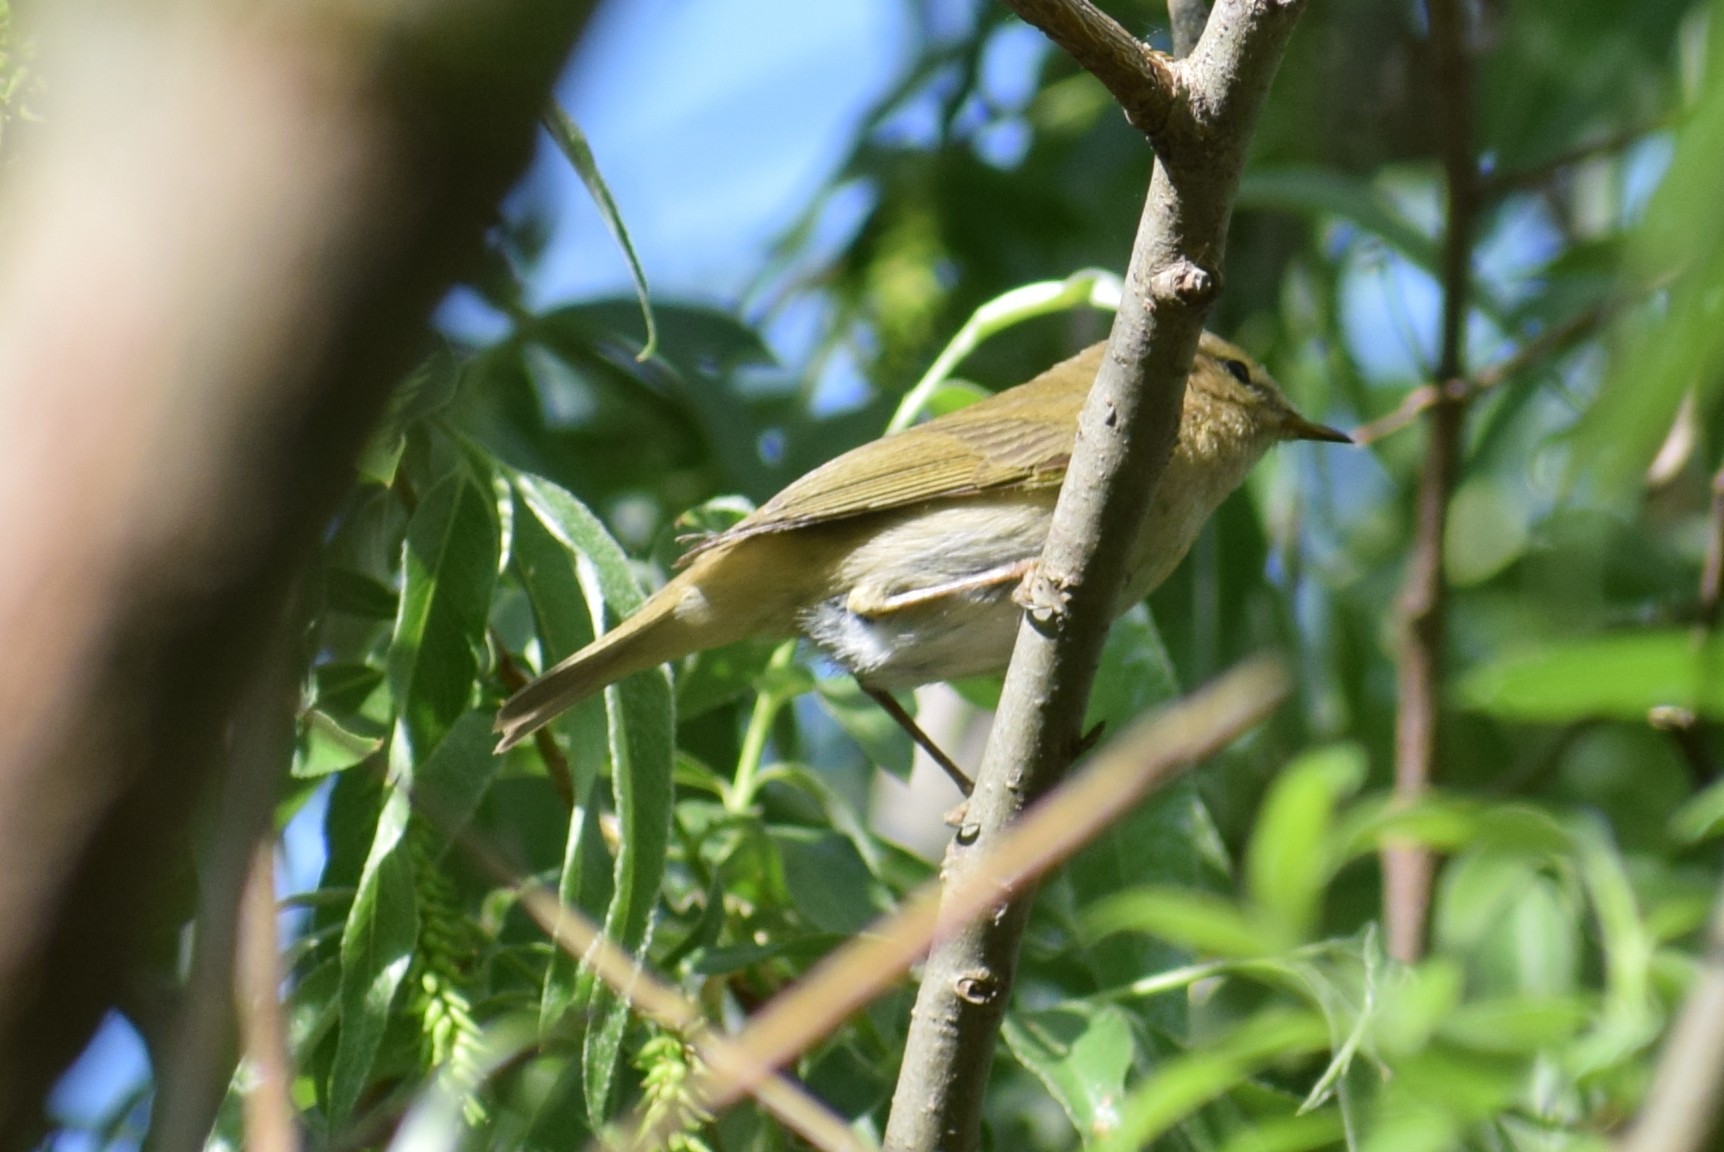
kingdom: Animalia
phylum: Chordata
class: Aves
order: Passeriformes
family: Phylloscopidae
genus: Phylloscopus
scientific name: Phylloscopus
